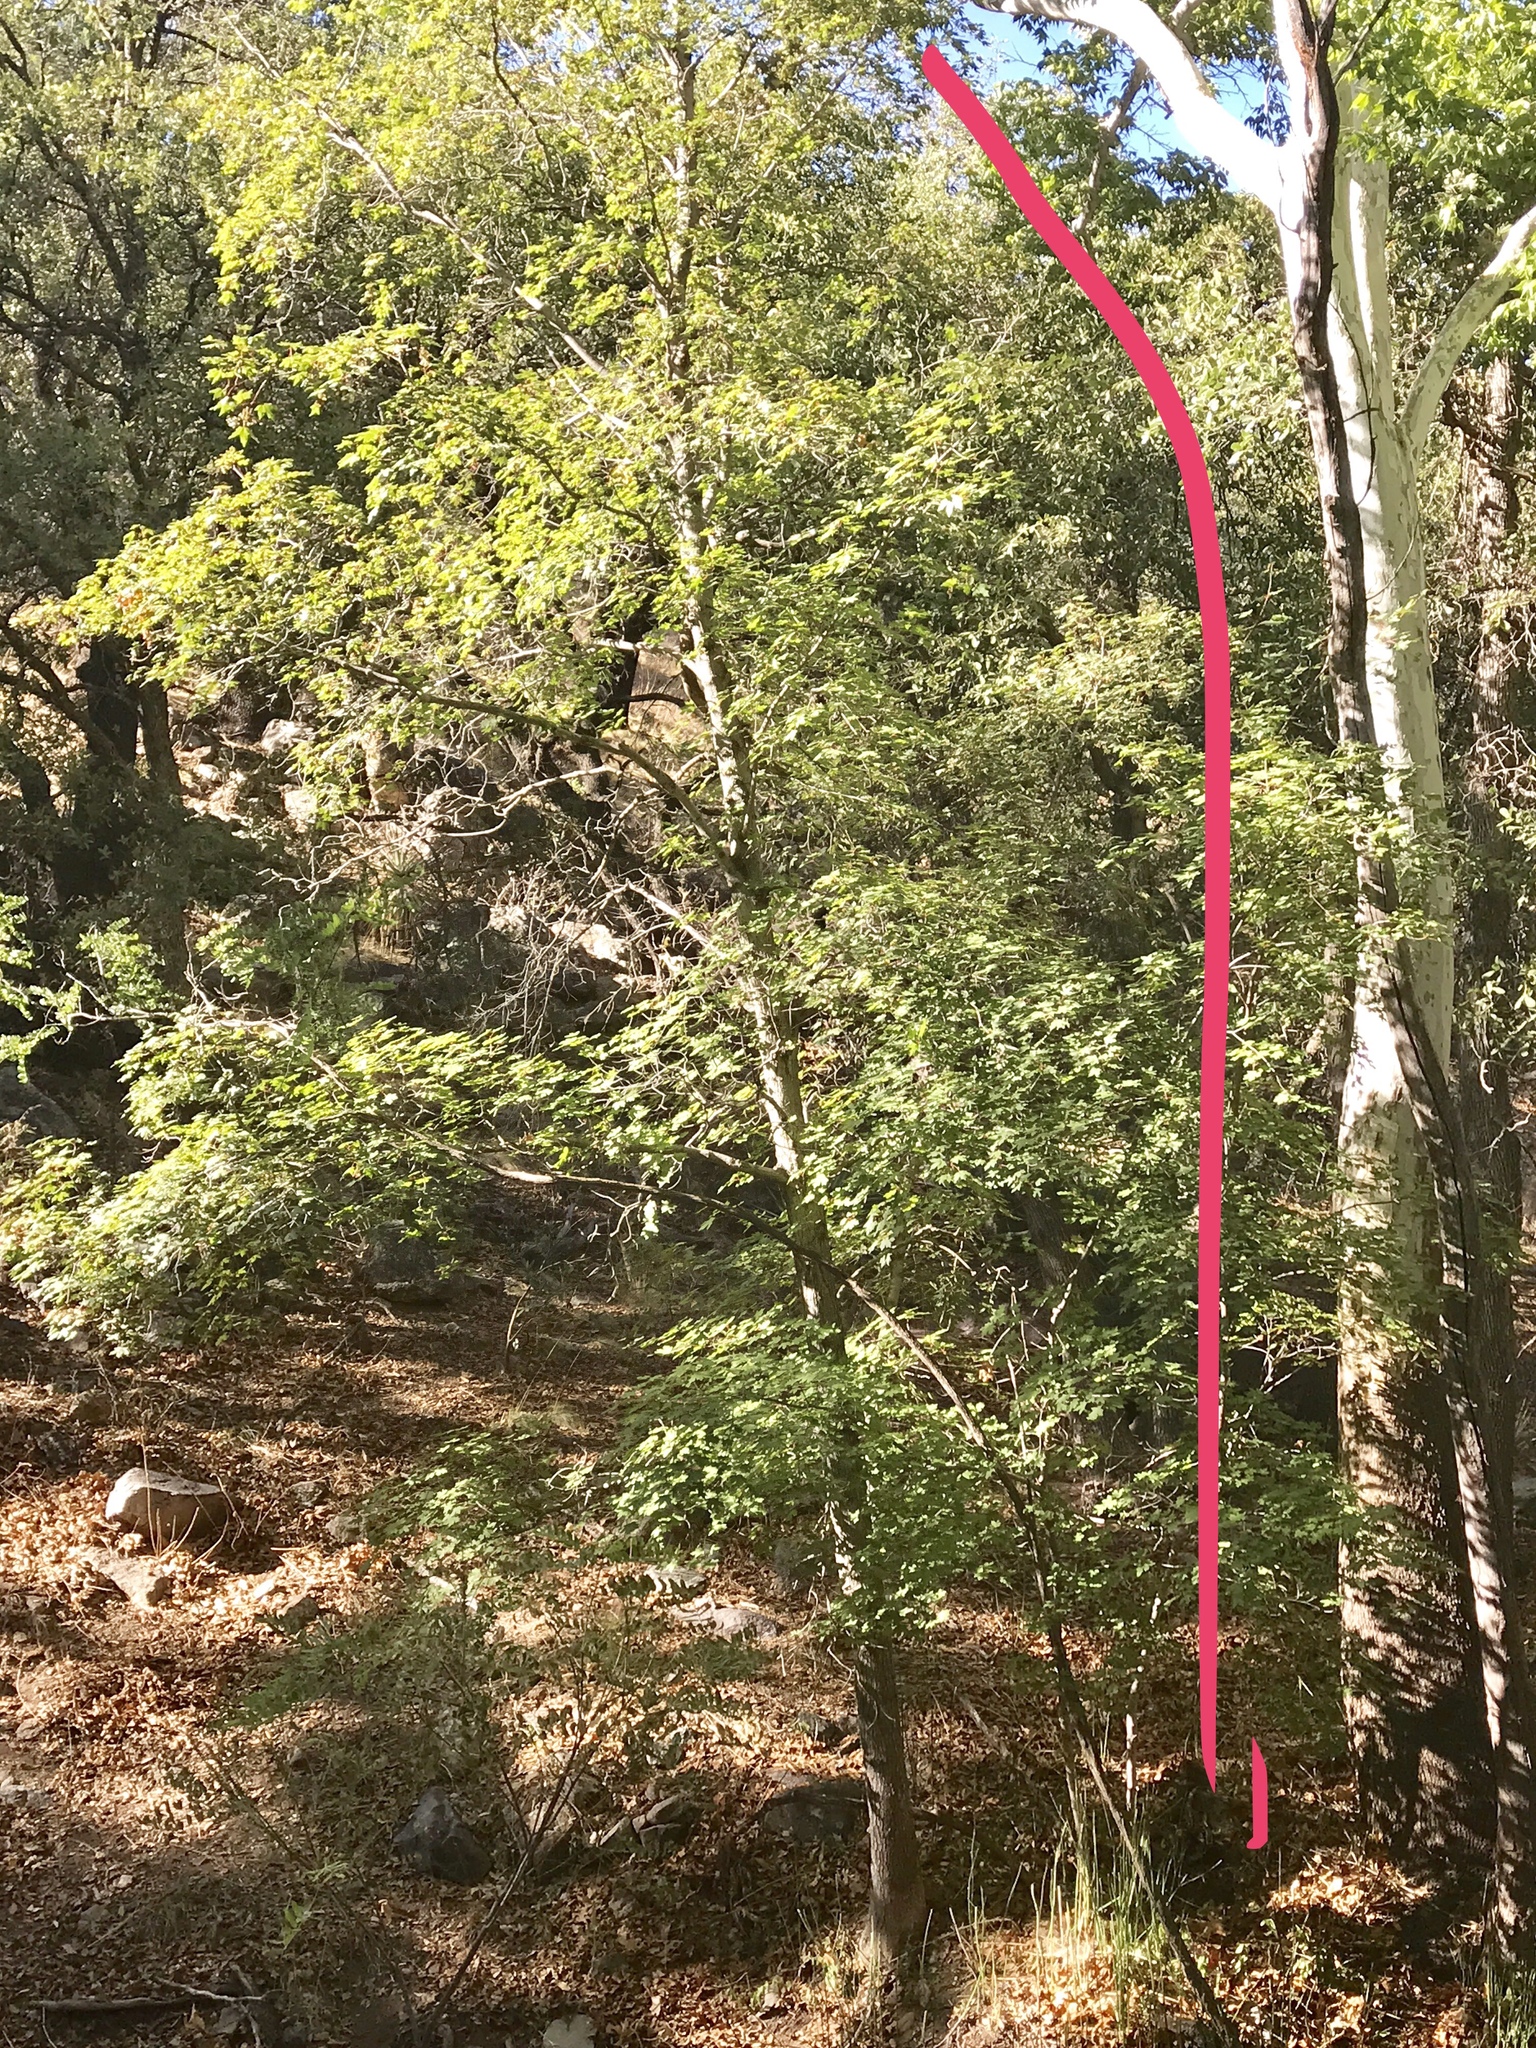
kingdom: Plantae
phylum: Tracheophyta
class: Magnoliopsida
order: Sapindales
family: Sapindaceae
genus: Acer
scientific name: Acer grandidentatum
